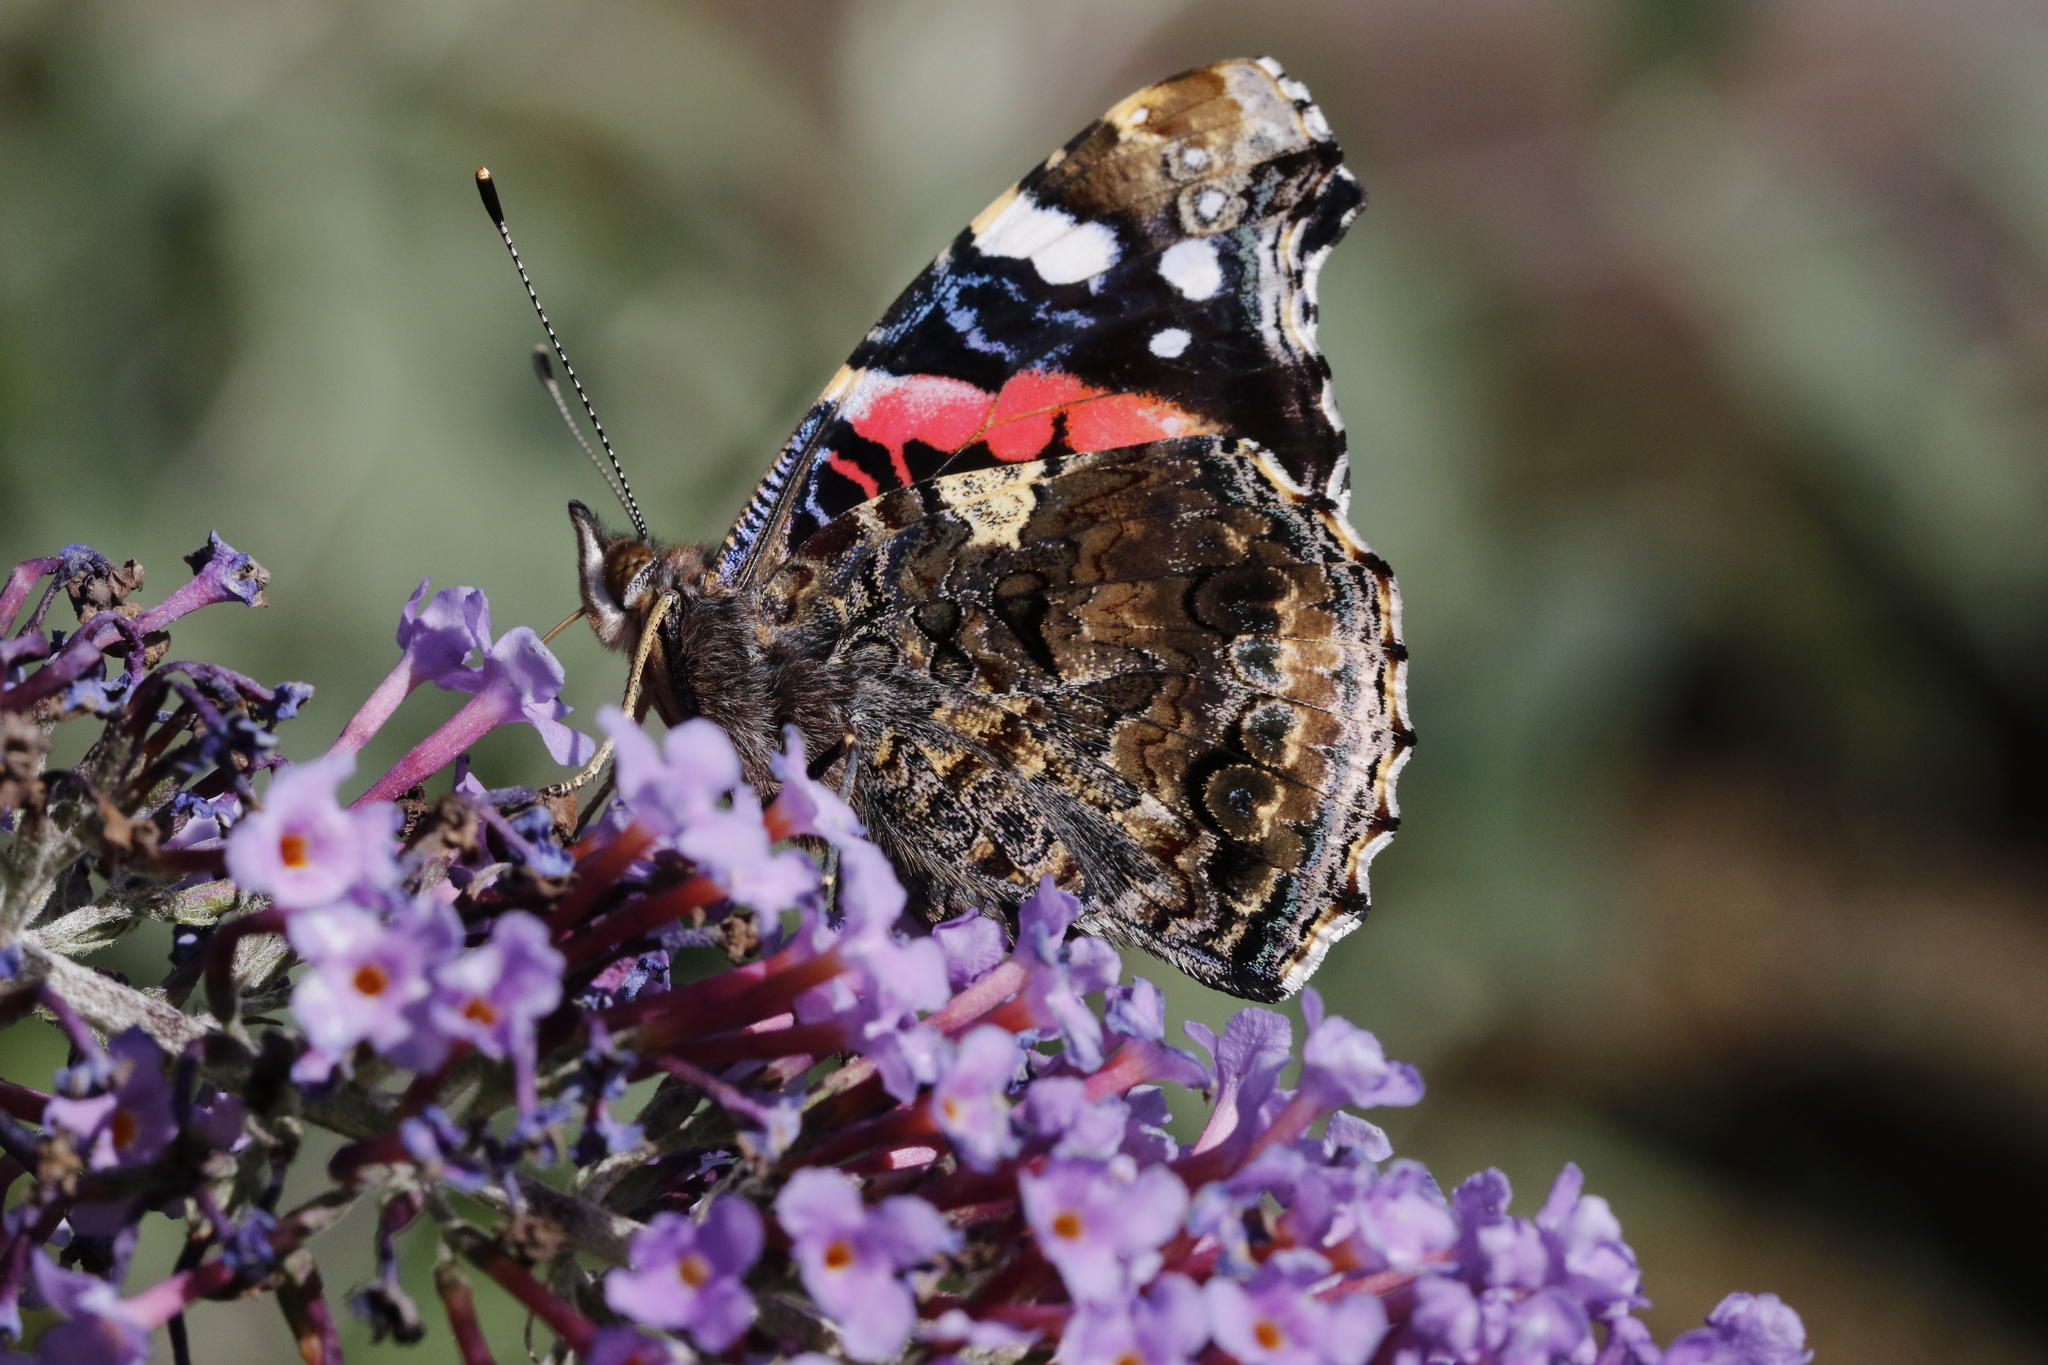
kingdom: Animalia
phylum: Arthropoda
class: Insecta
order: Lepidoptera
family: Nymphalidae
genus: Vanessa
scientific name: Vanessa atalanta
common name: Red admiral
